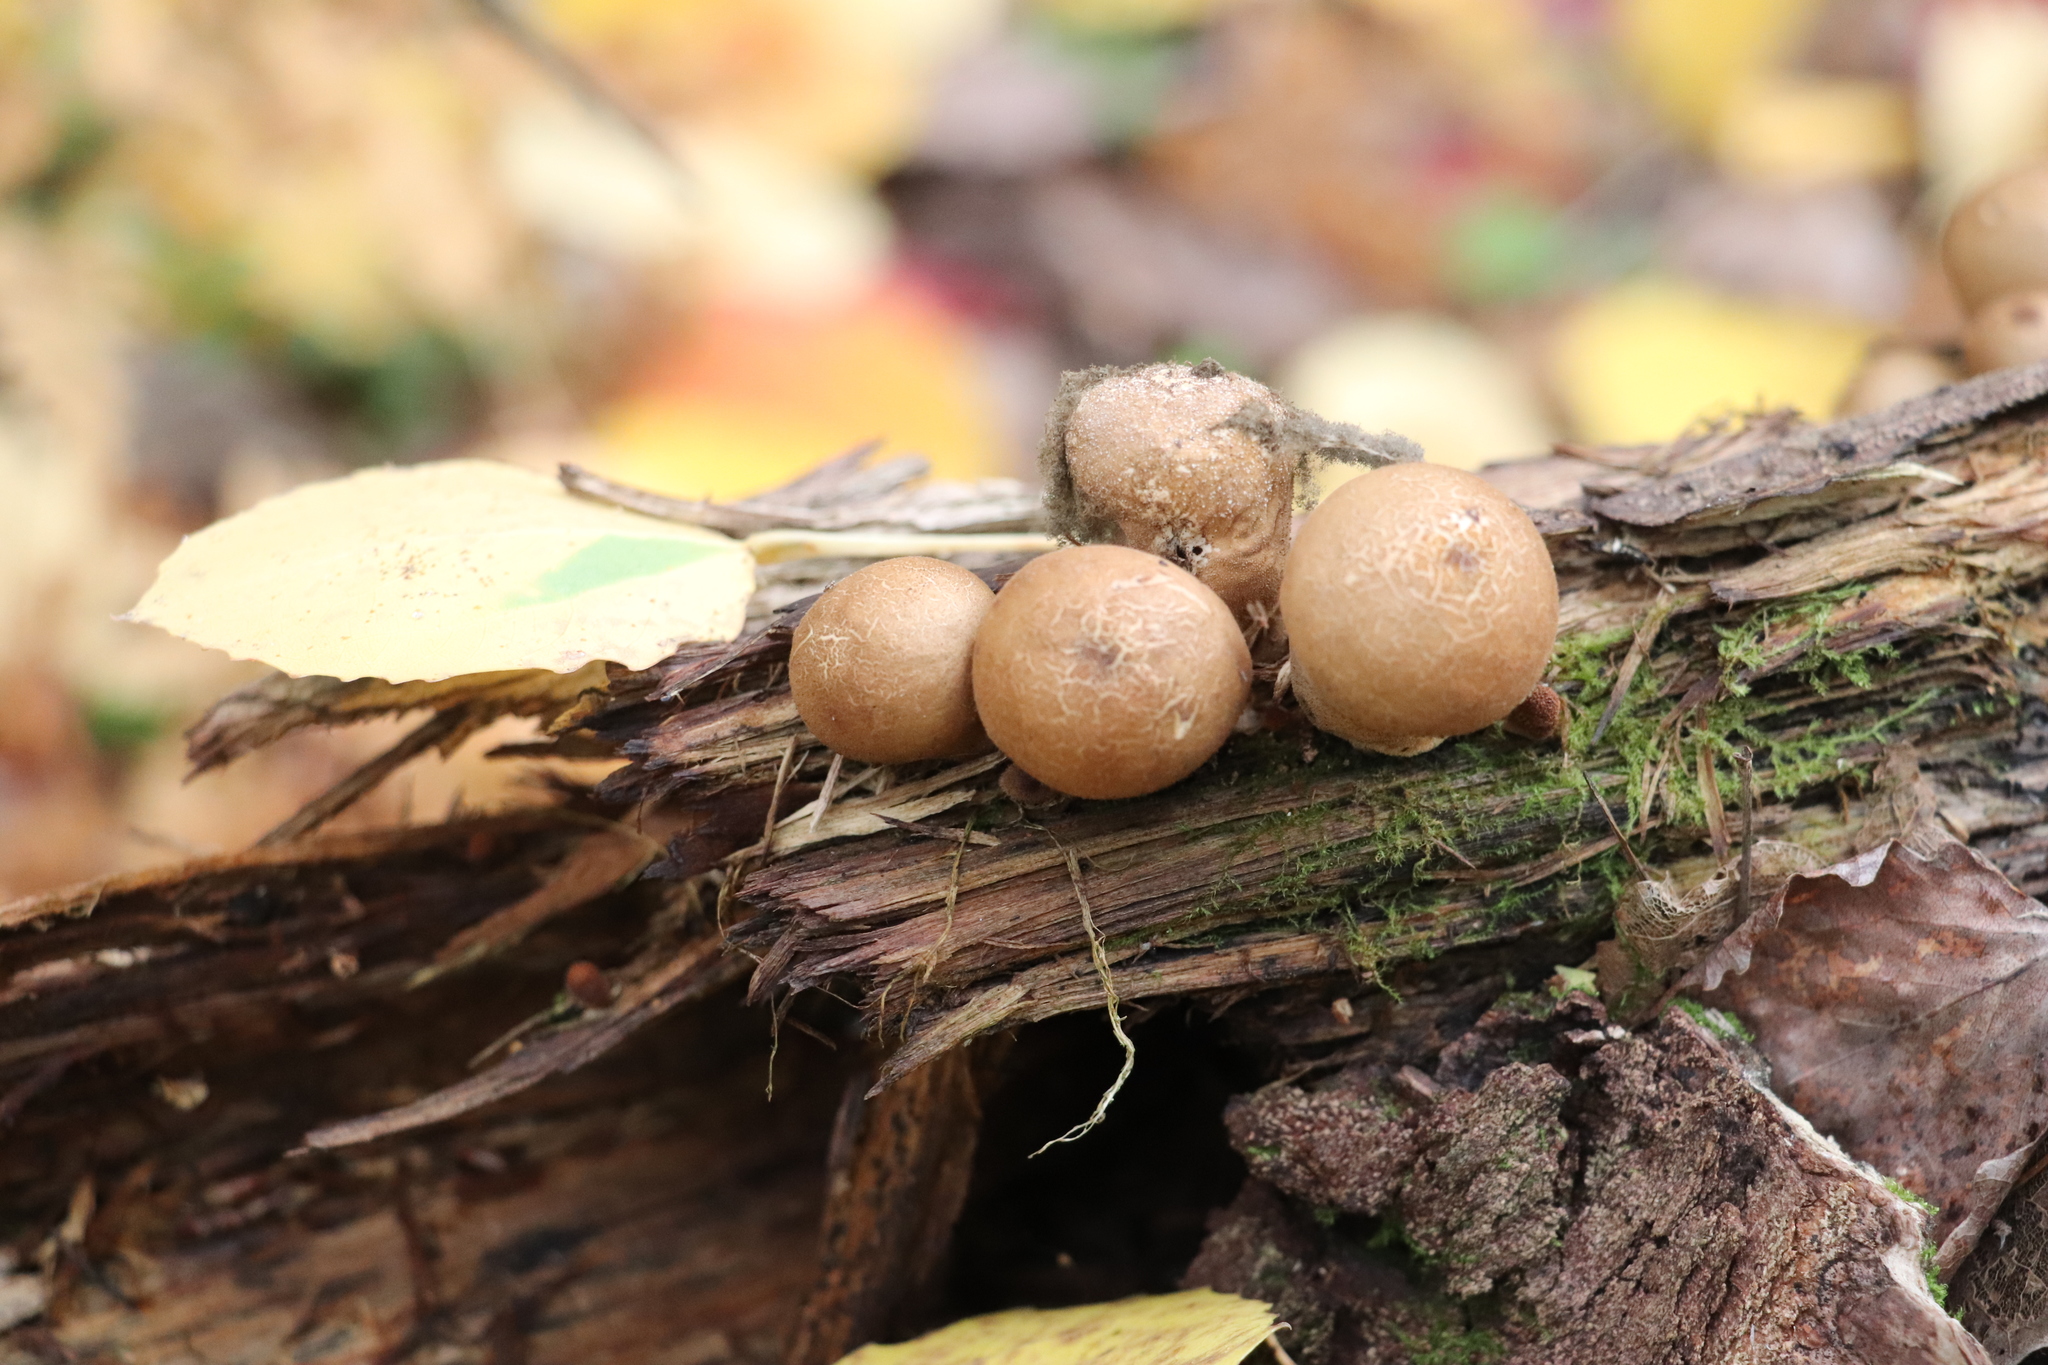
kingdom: Fungi
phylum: Basidiomycota
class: Agaricomycetes
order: Agaricales
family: Lycoperdaceae
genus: Apioperdon
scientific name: Apioperdon pyriforme
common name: Pear-shaped puffball
